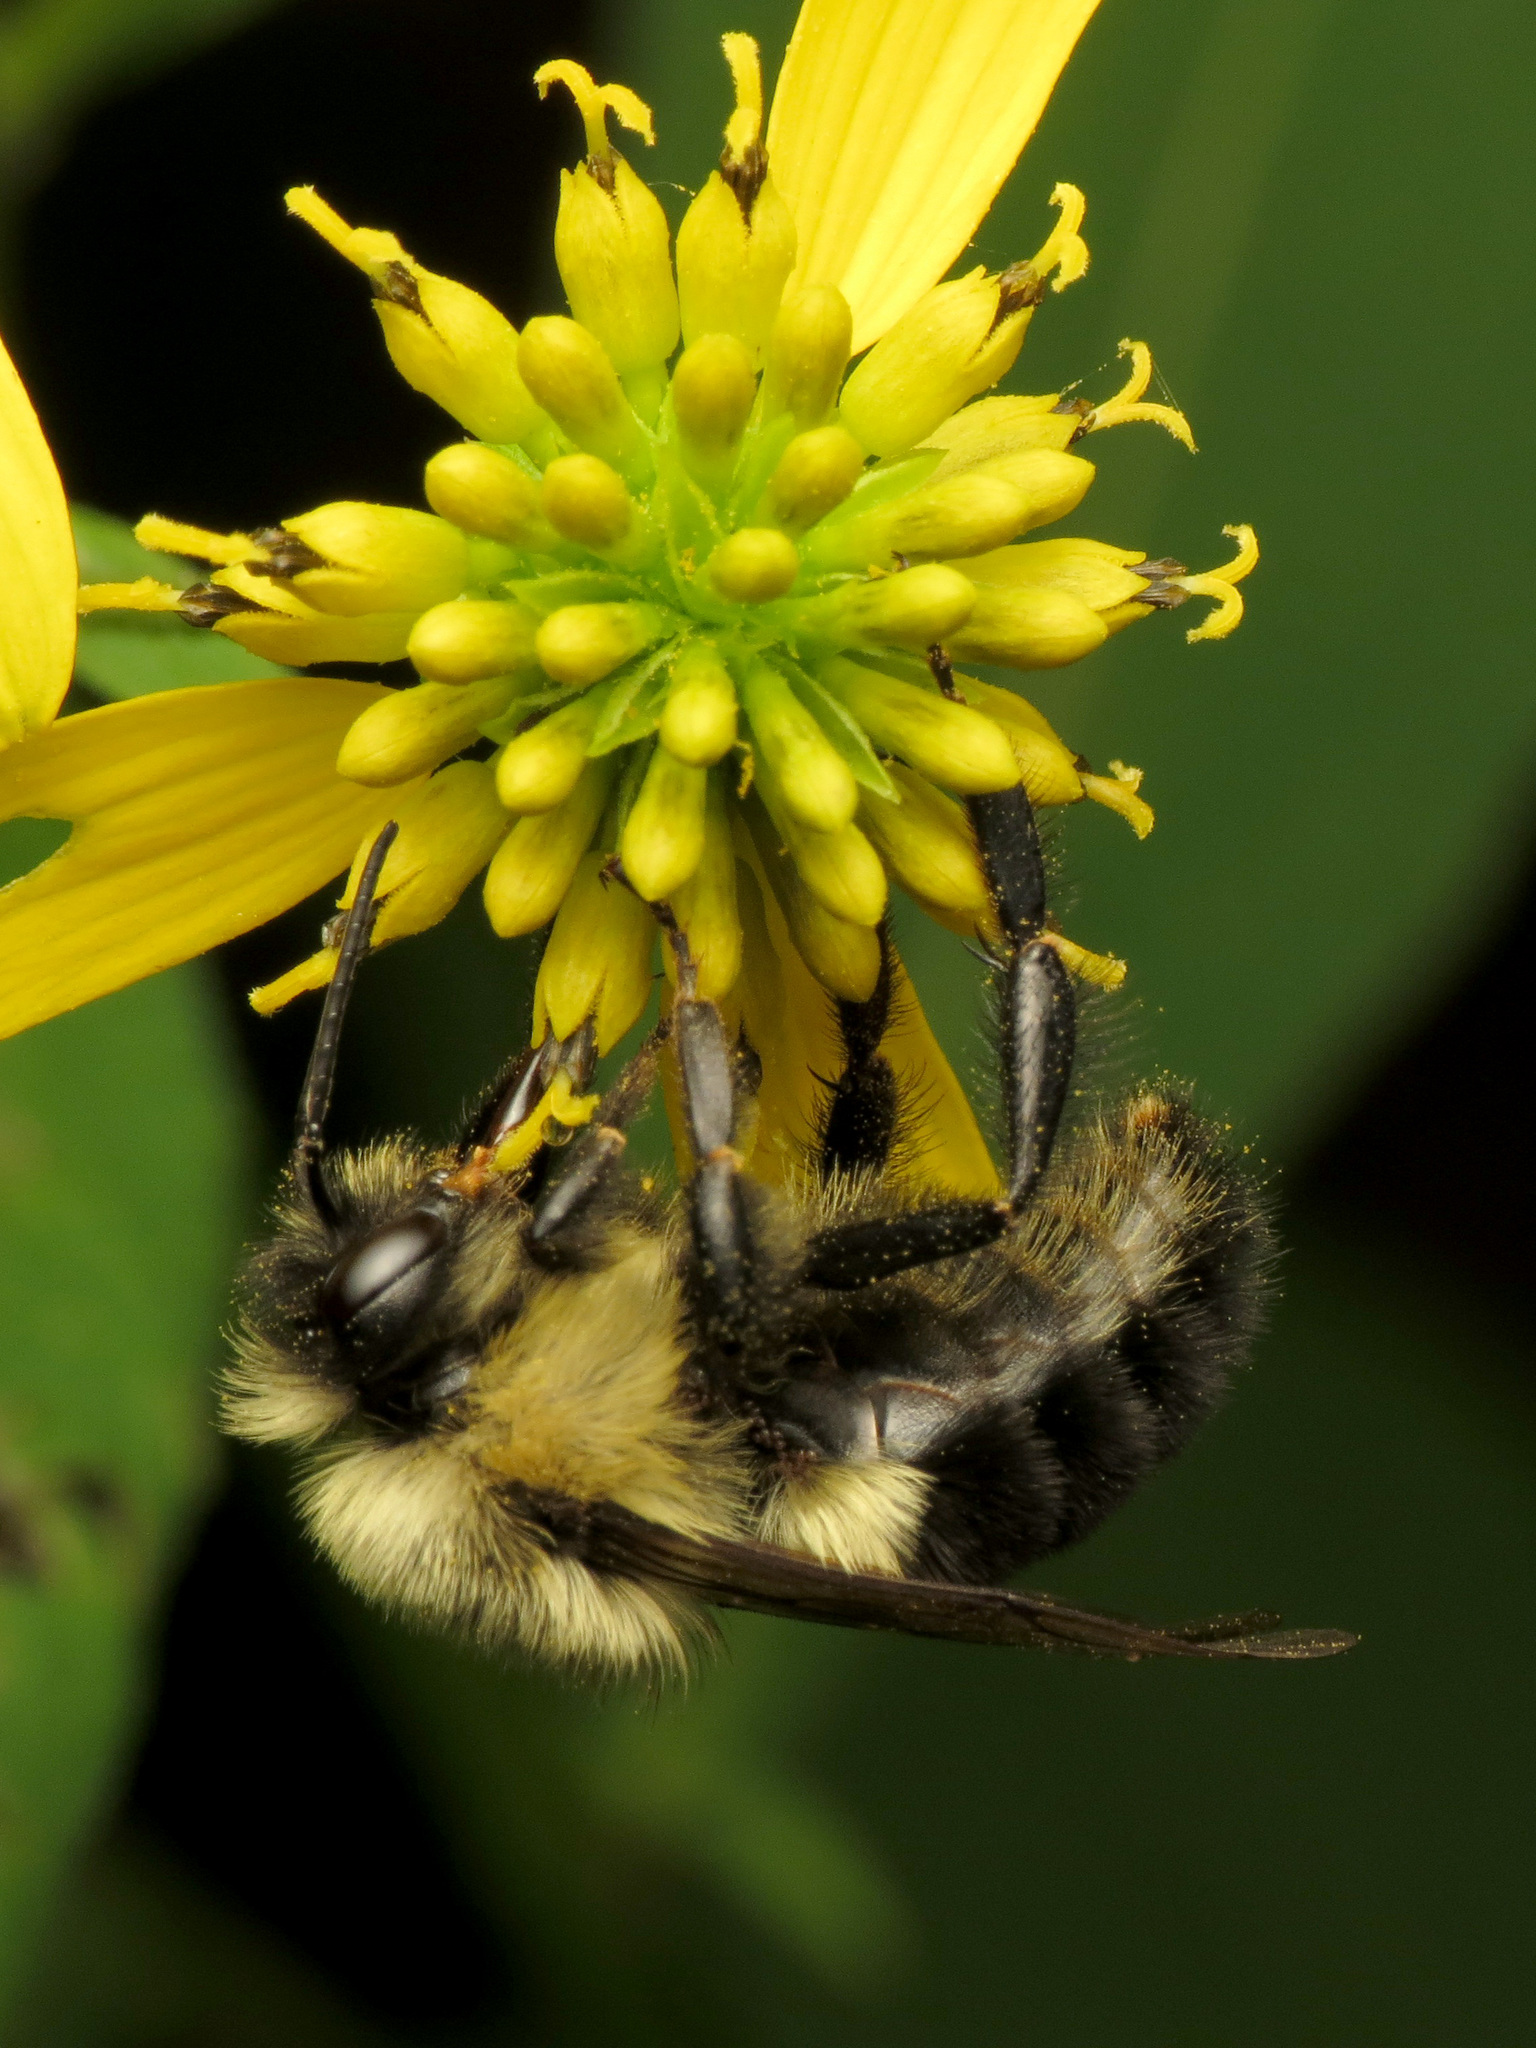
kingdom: Animalia
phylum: Arthropoda
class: Insecta
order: Hymenoptera
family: Apidae
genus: Bombus
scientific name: Bombus impatiens
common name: Common eastern bumble bee
